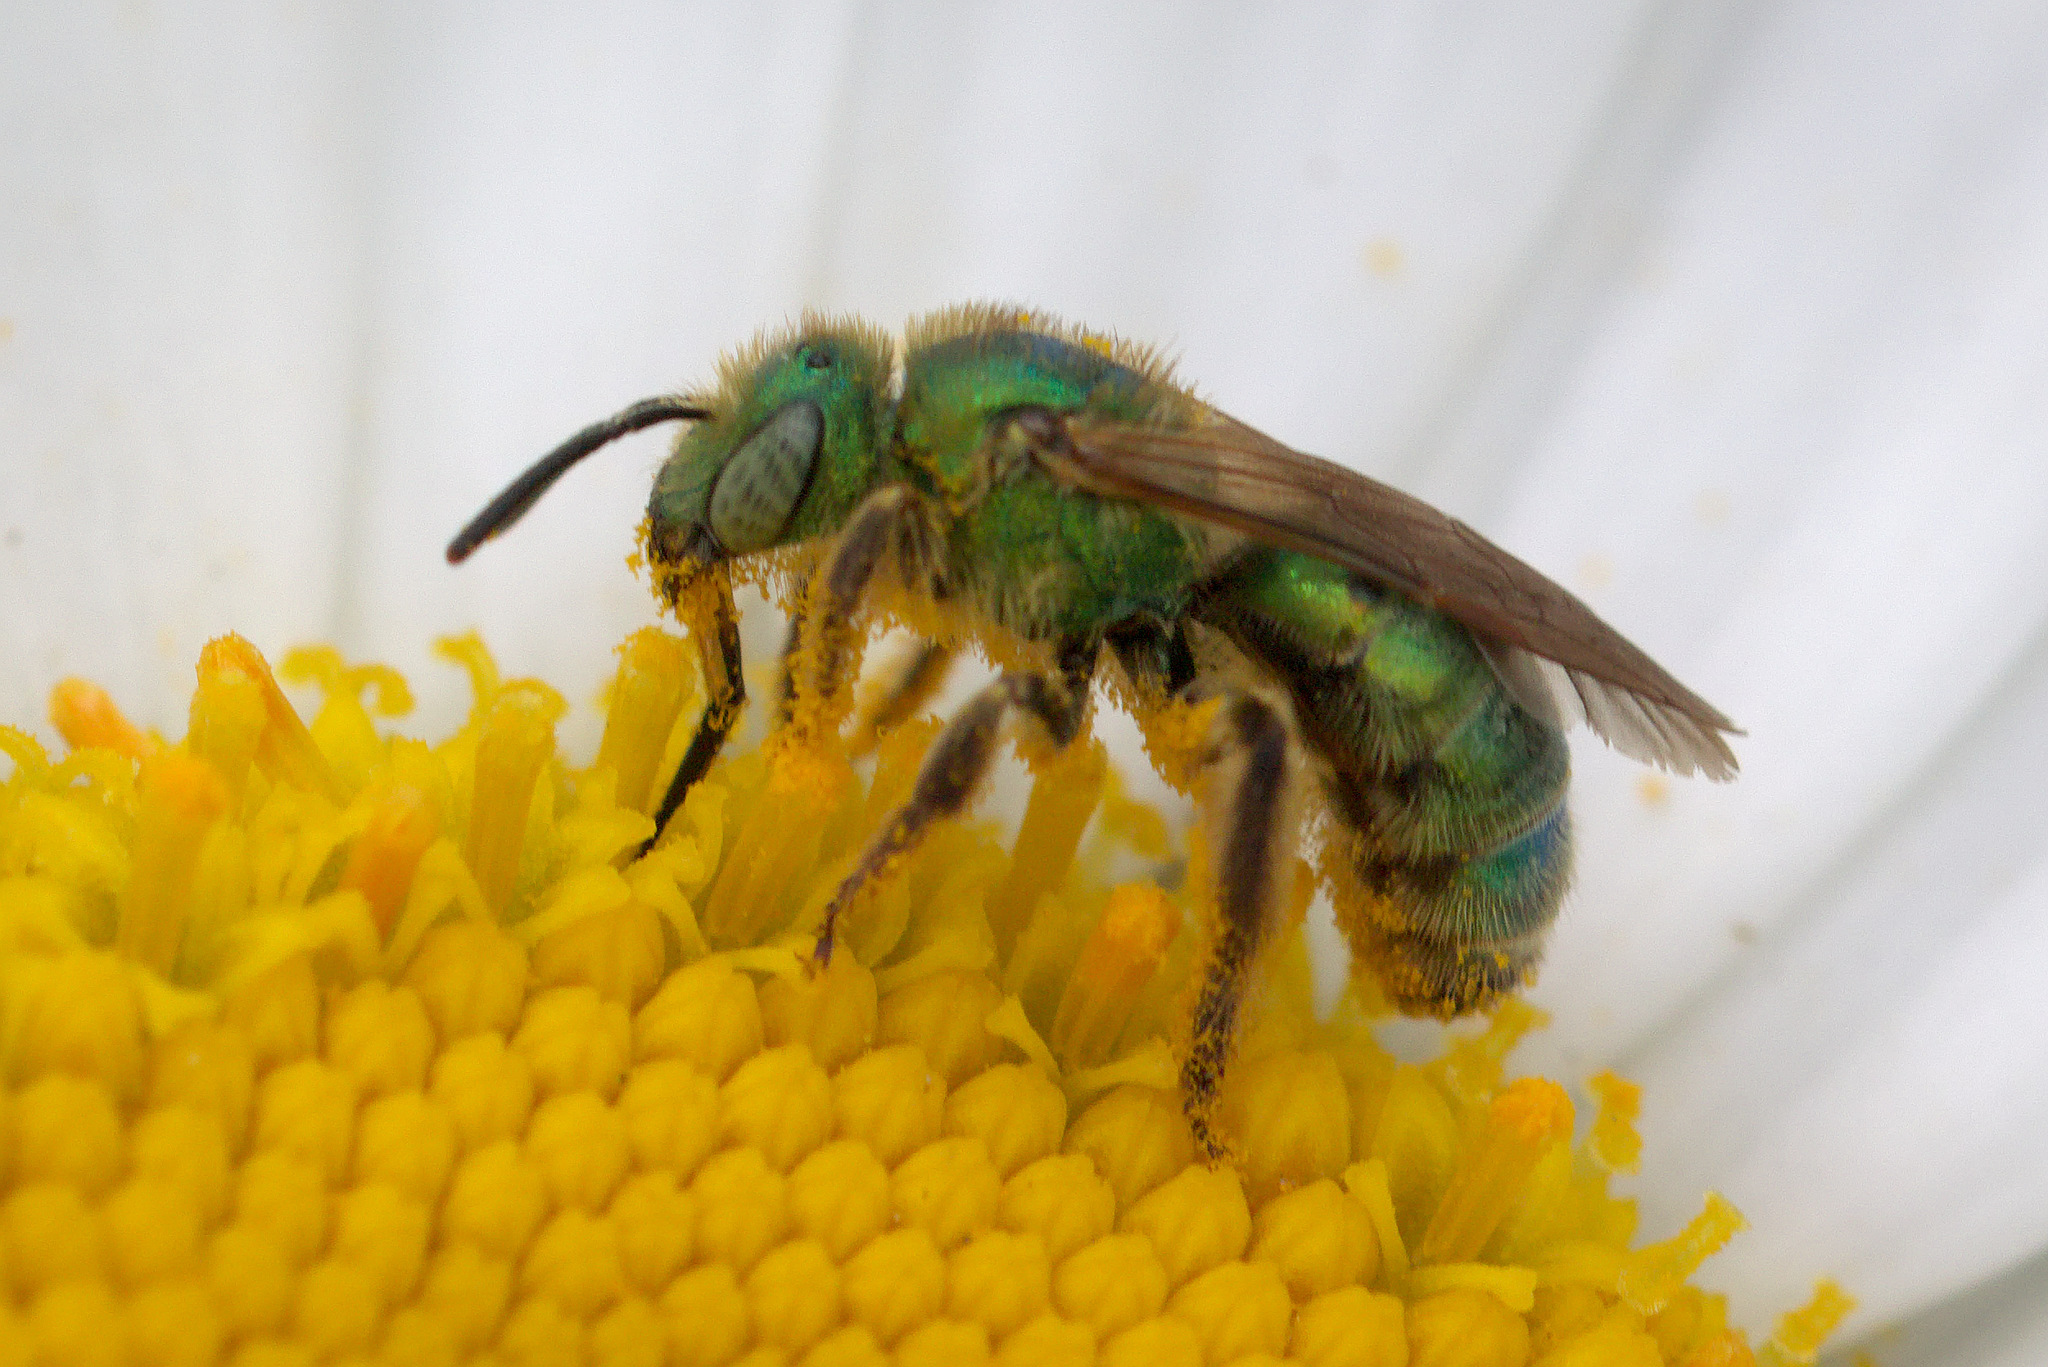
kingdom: Animalia
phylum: Arthropoda
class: Insecta
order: Hymenoptera
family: Halictidae
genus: Agapostemon
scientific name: Agapostemon texanus
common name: Texas striped sweat bee
